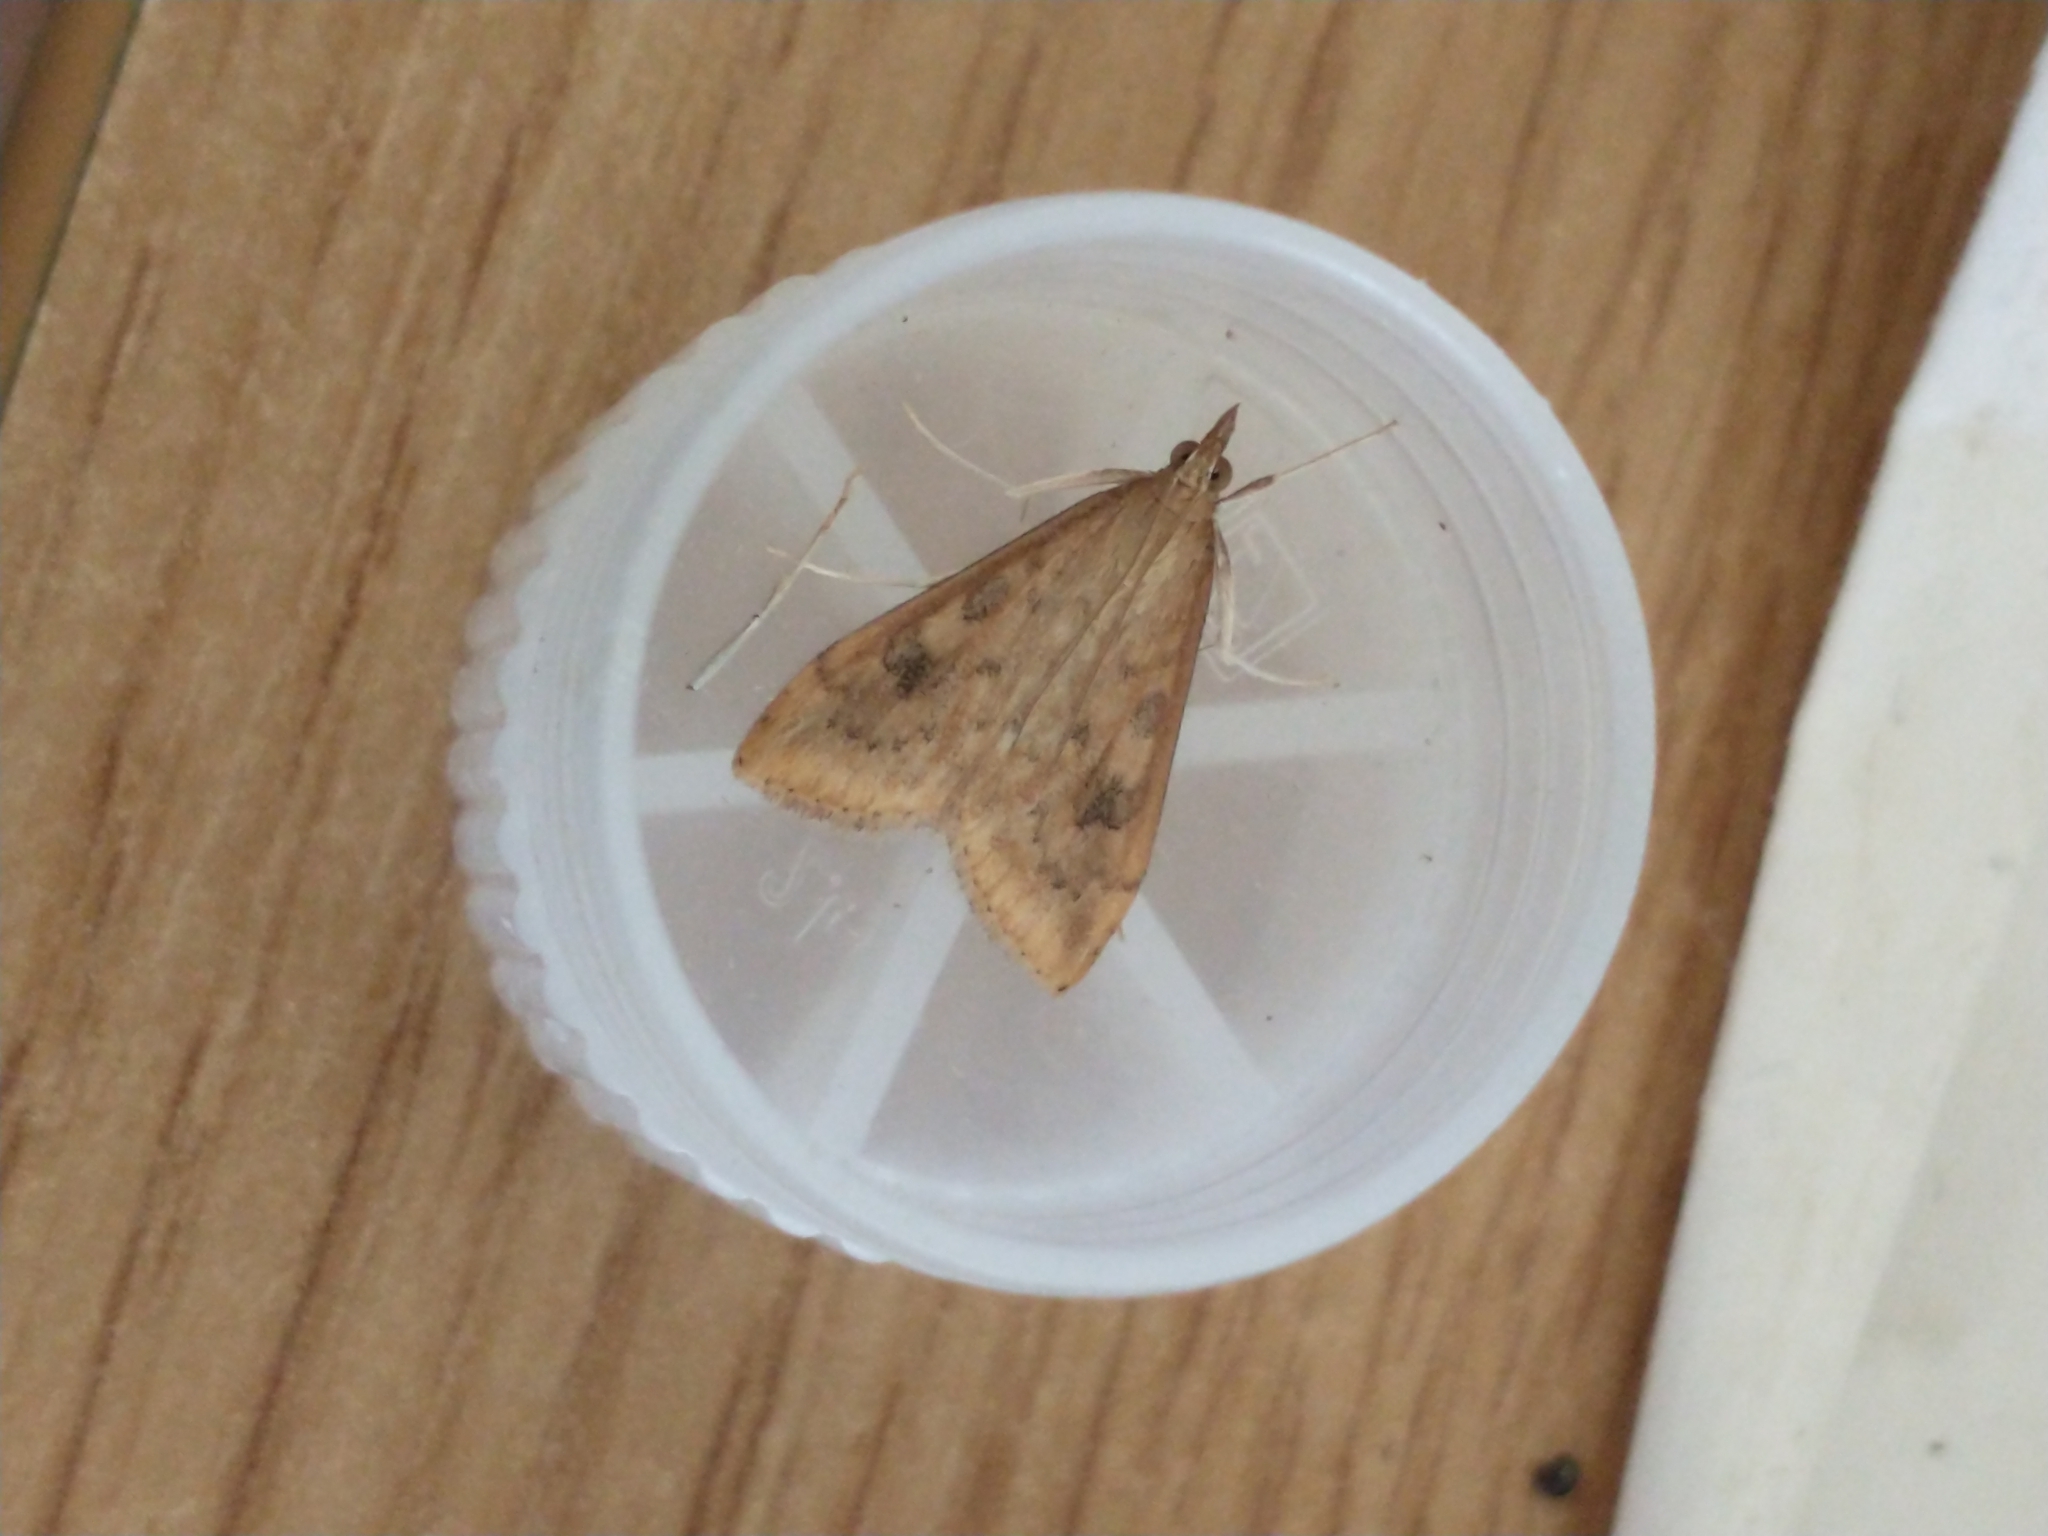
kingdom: Animalia
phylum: Arthropoda
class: Insecta
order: Lepidoptera
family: Crambidae
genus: Udea
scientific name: Udea ferrugalis
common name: Rusty dot
